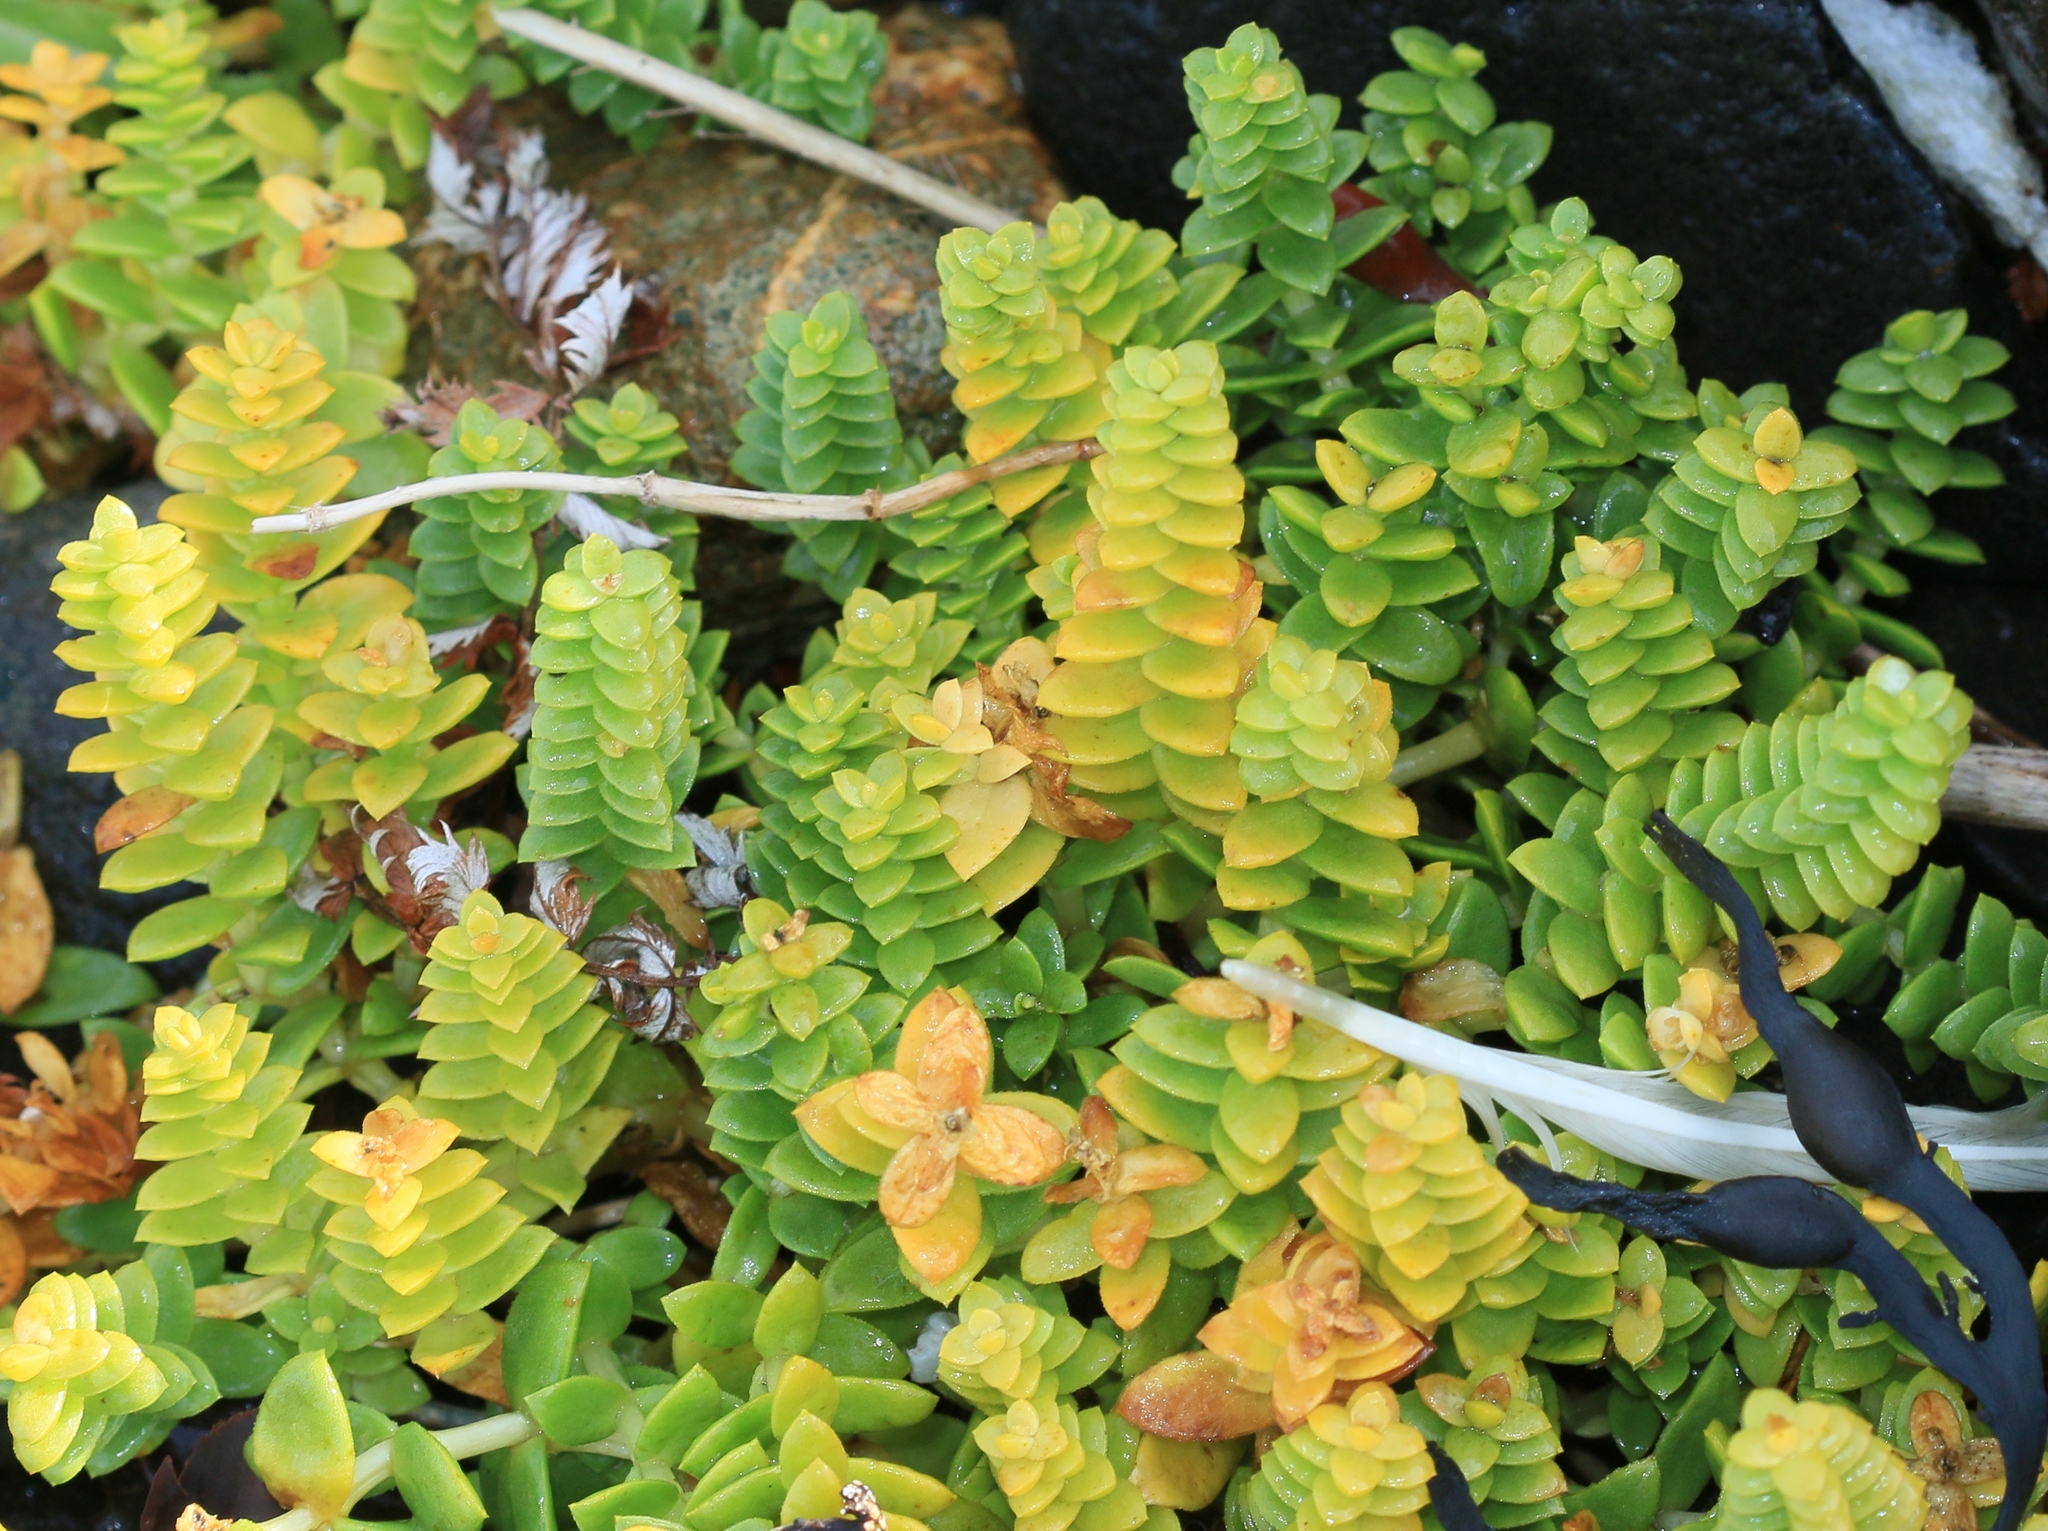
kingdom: Plantae
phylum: Tracheophyta
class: Magnoliopsida
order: Caryophyllales
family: Caryophyllaceae
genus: Honckenya
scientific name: Honckenya peploides
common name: Sea sandwort
